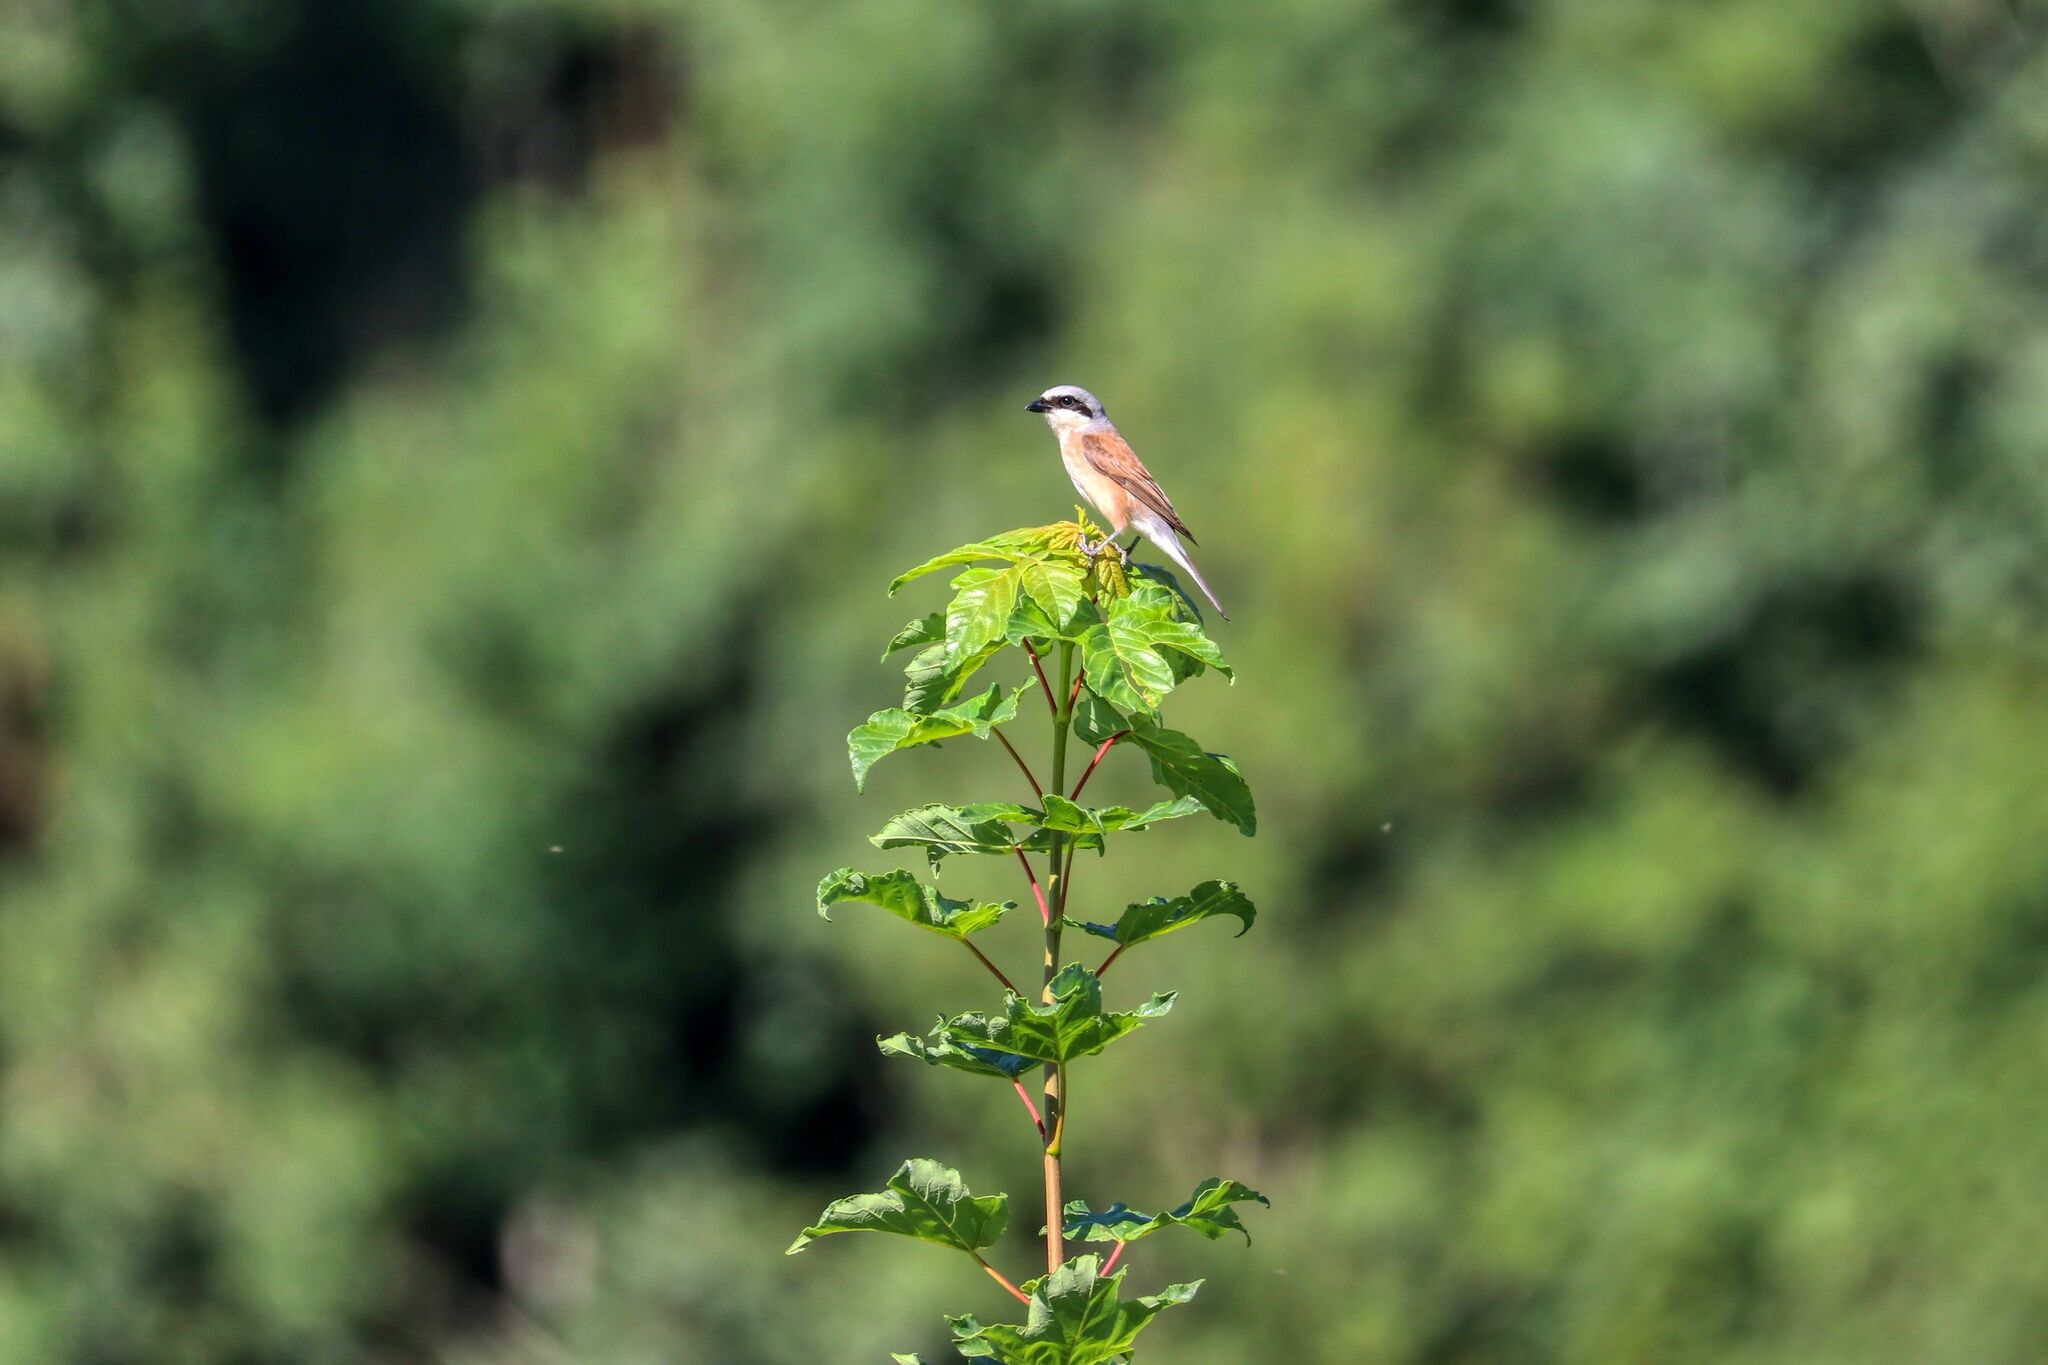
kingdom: Animalia
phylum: Chordata
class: Aves
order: Passeriformes
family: Laniidae
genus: Lanius
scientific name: Lanius collurio
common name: Red-backed shrike
